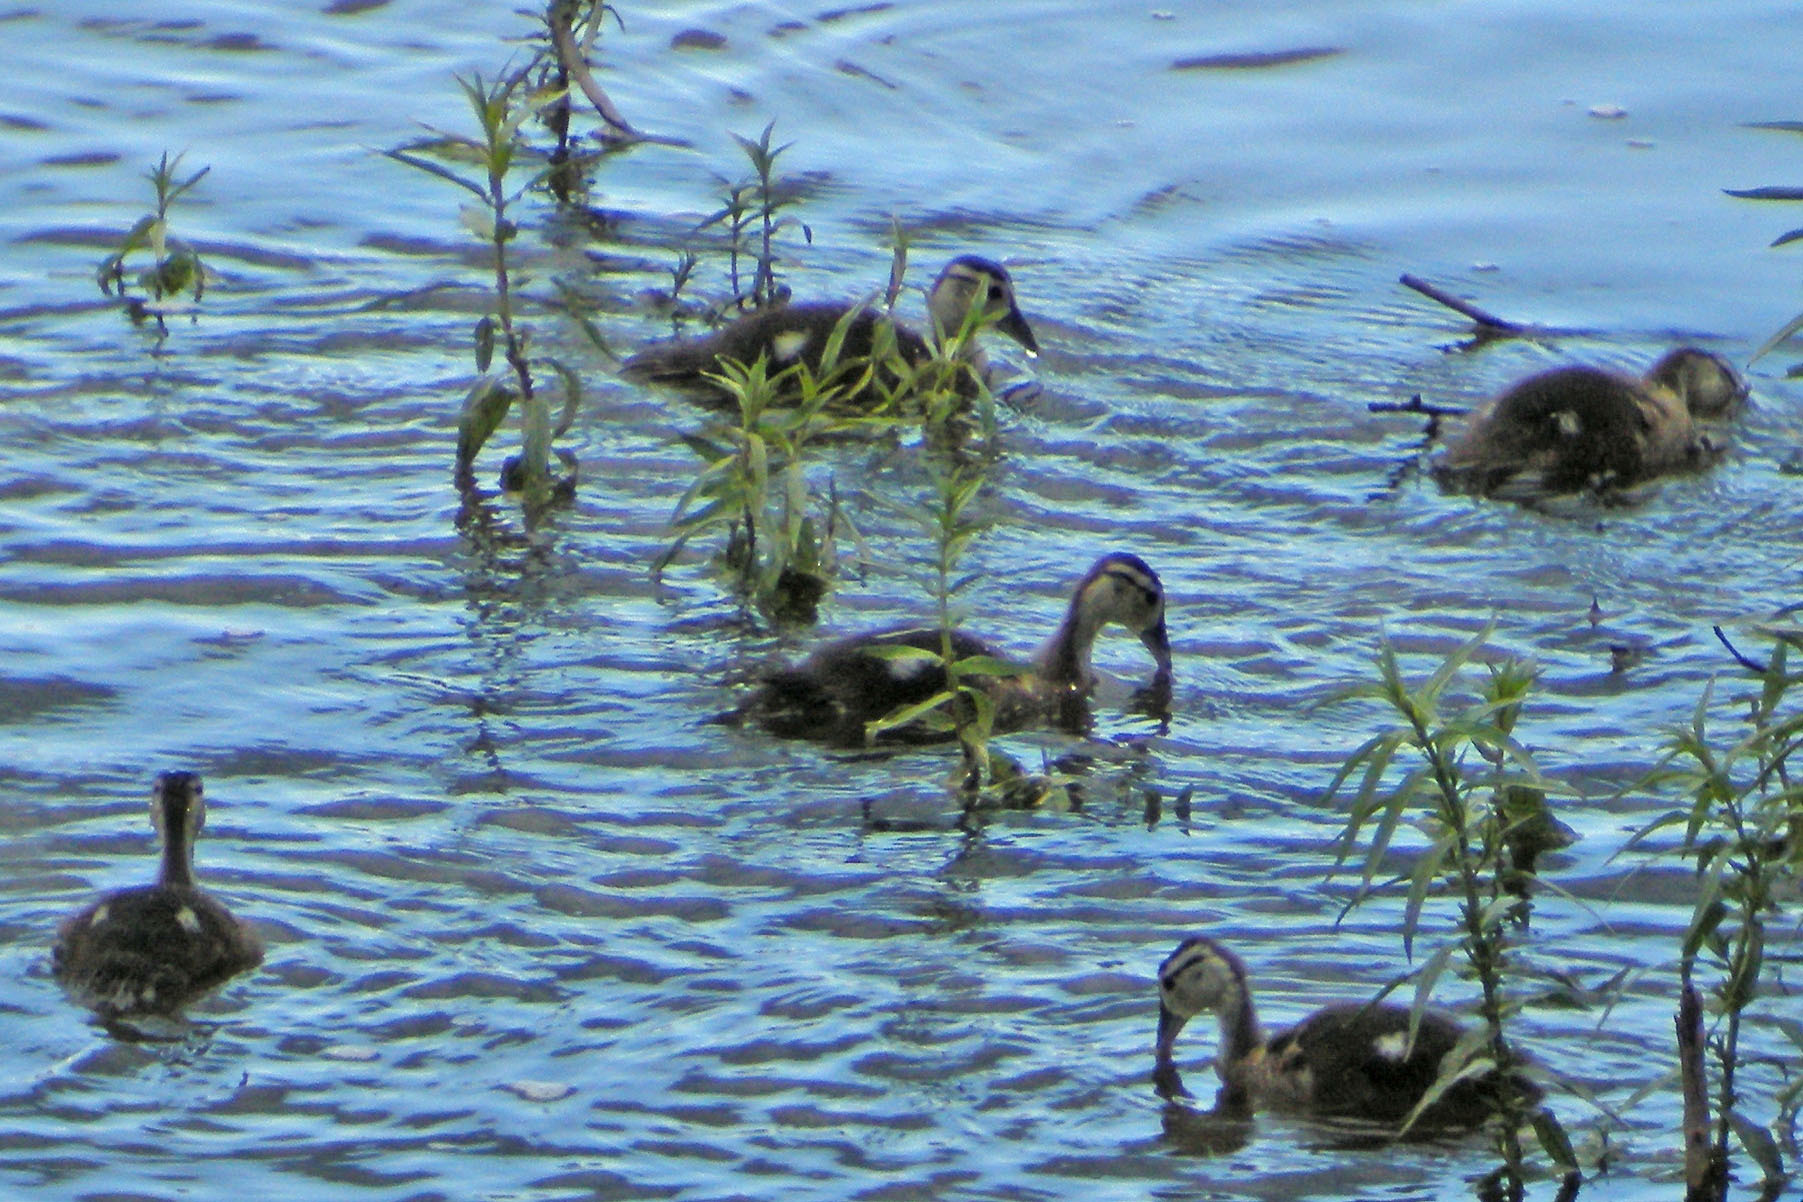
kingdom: Animalia
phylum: Chordata
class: Aves
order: Anseriformes
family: Anatidae
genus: Aix
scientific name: Aix sponsa
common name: Wood duck
